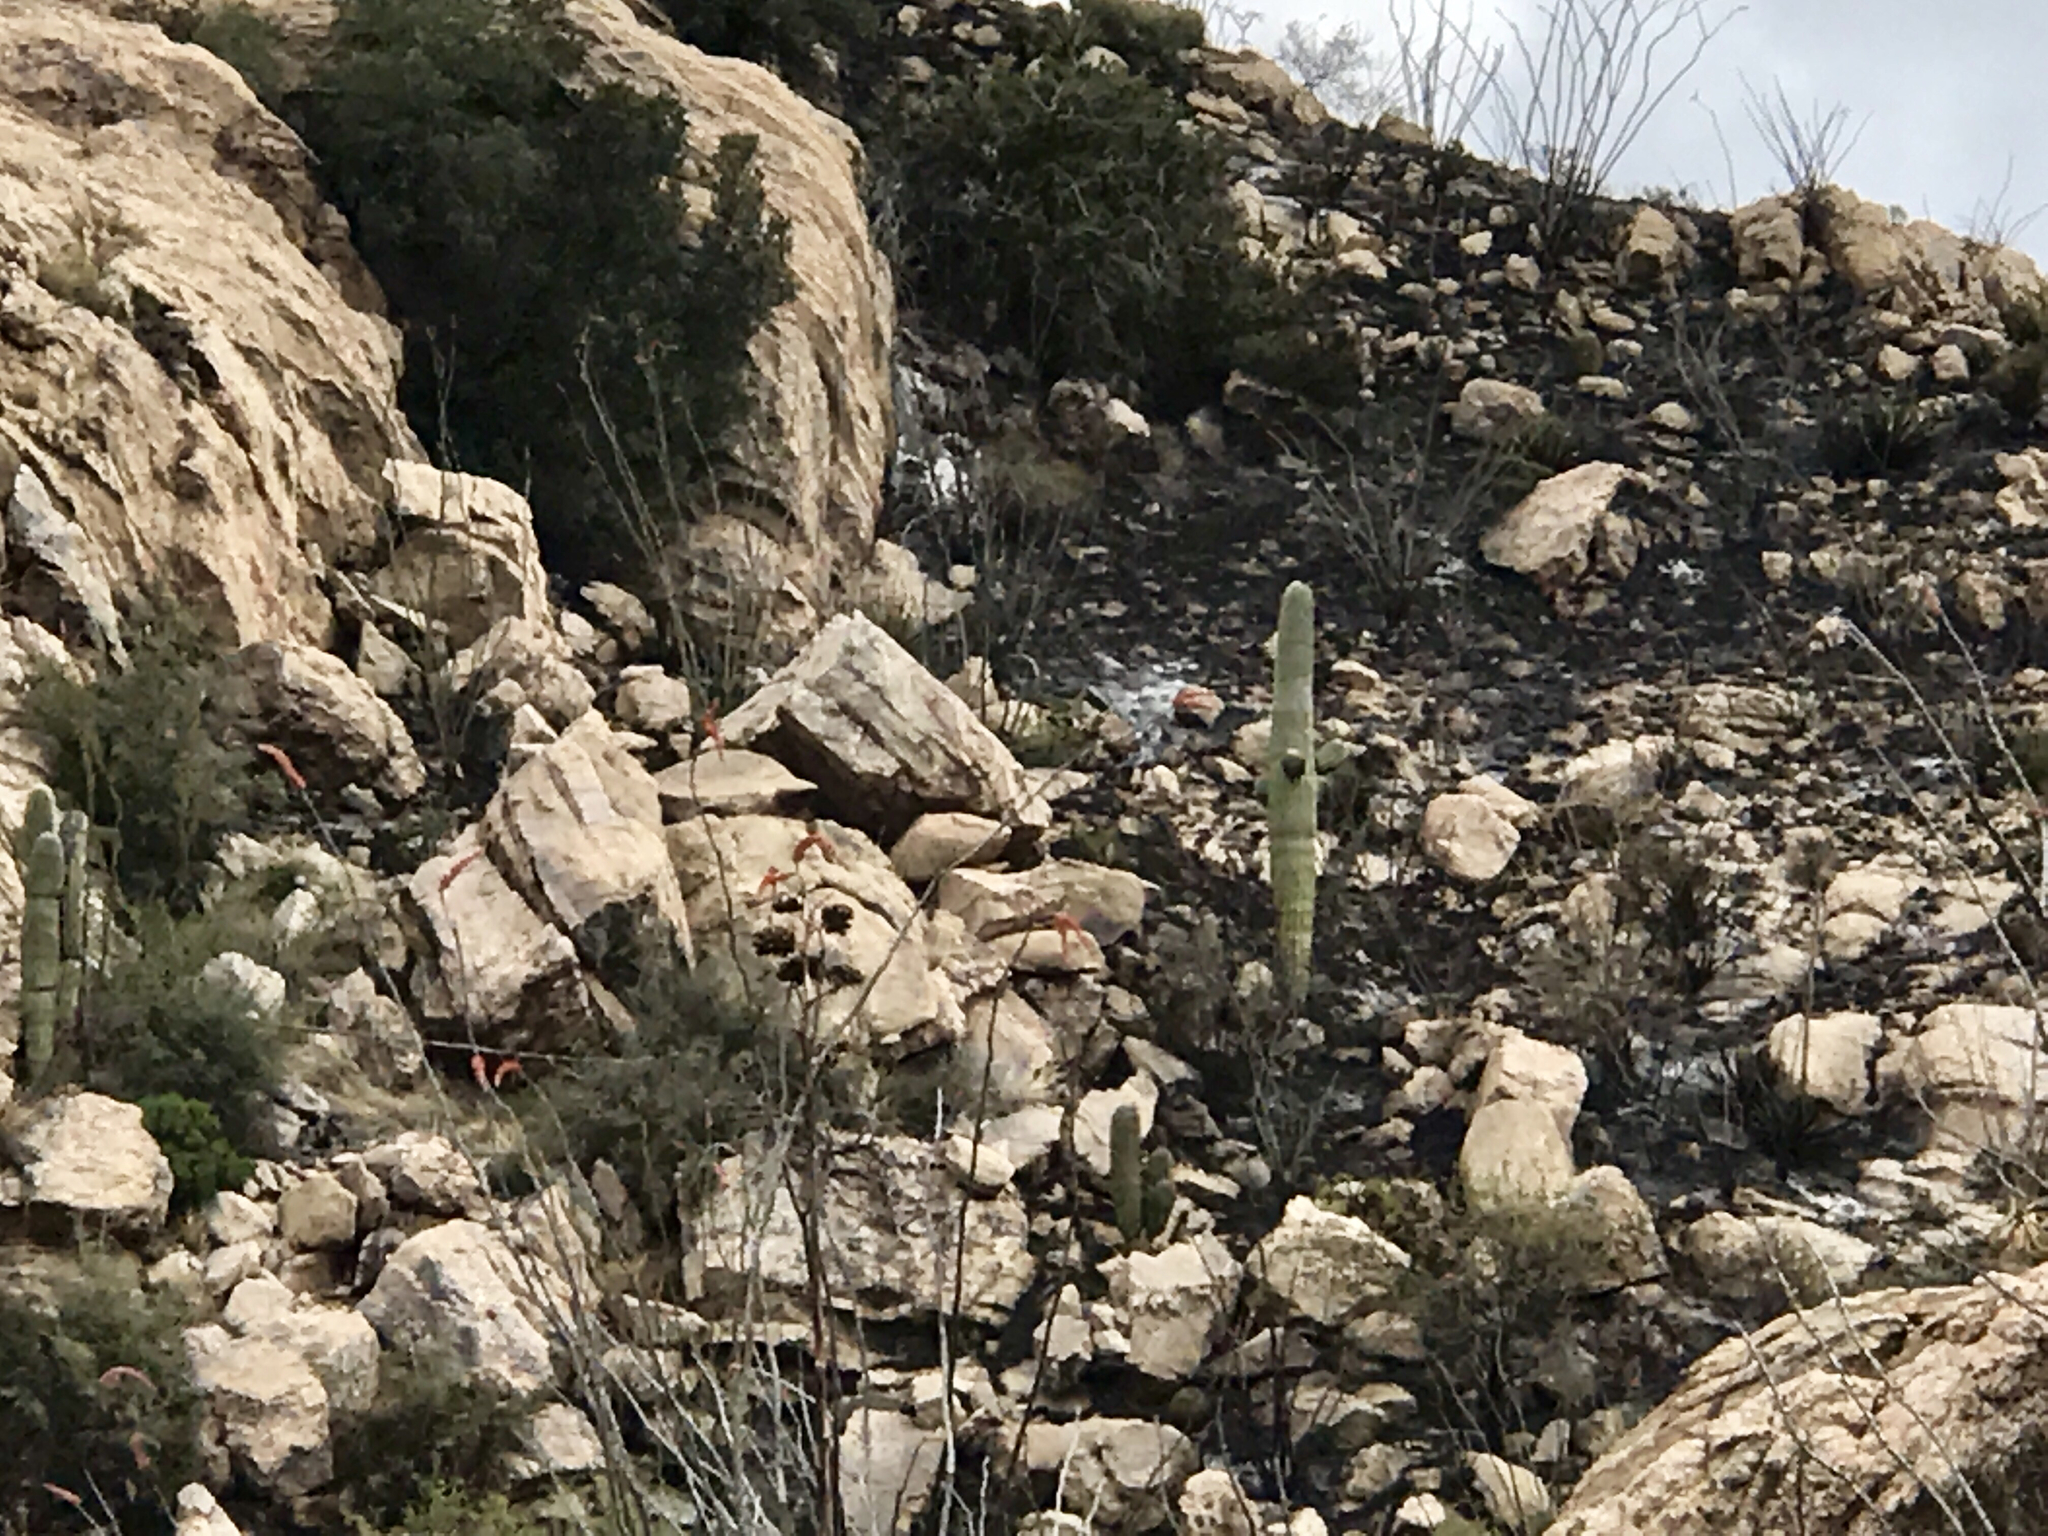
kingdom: Plantae
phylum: Tracheophyta
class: Magnoliopsida
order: Caryophyllales
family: Cactaceae
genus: Carnegiea
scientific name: Carnegiea gigantea
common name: Saguaro
